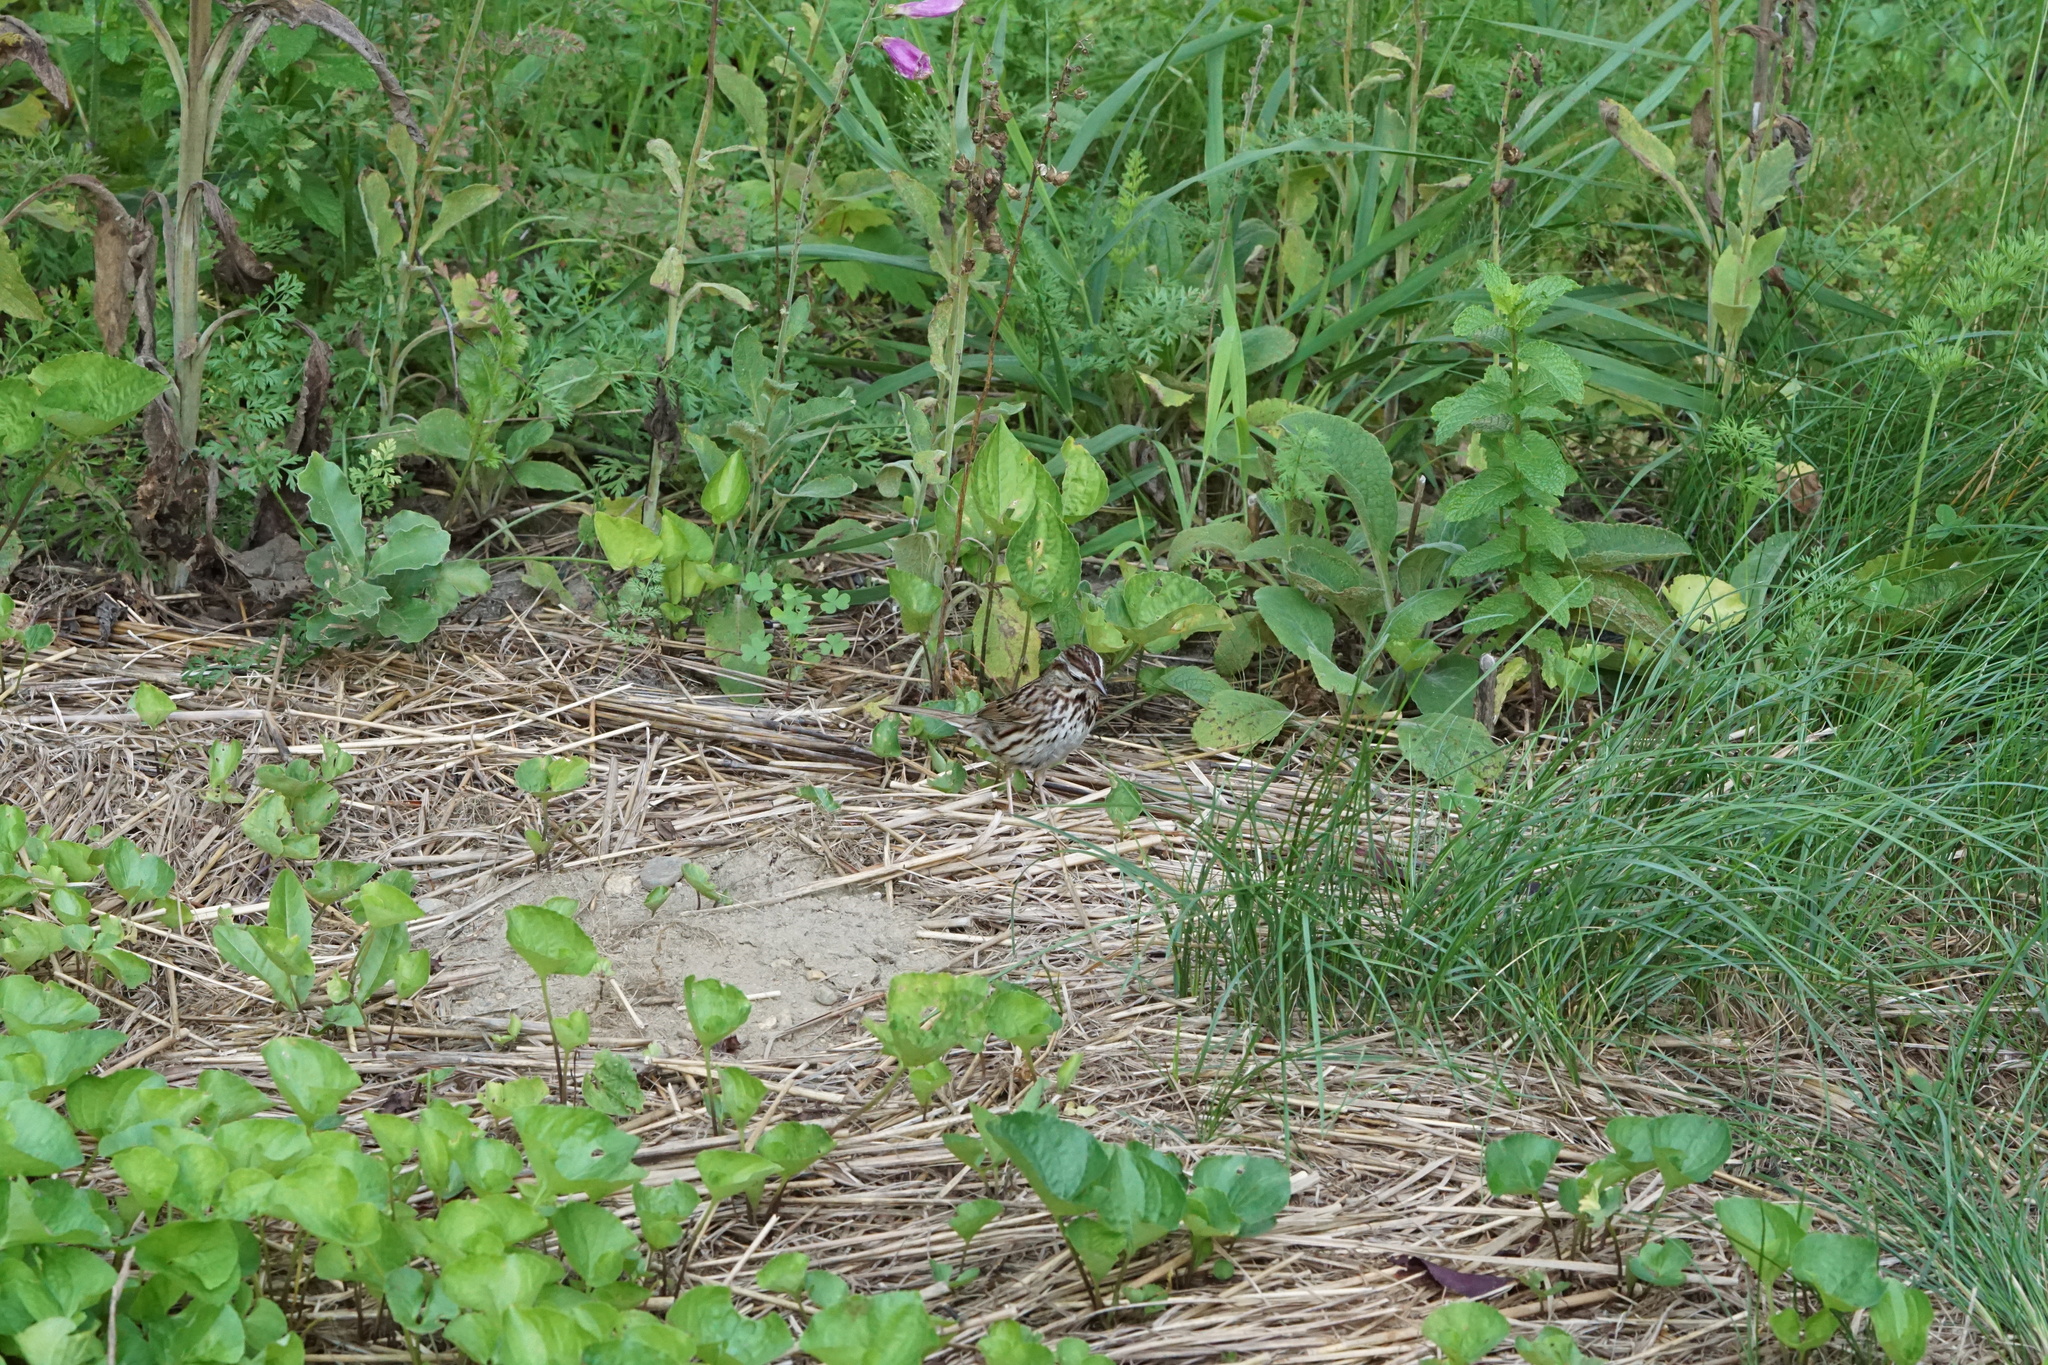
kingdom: Animalia
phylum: Chordata
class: Aves
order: Passeriformes
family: Passerellidae
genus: Melospiza
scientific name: Melospiza melodia
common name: Song sparrow
